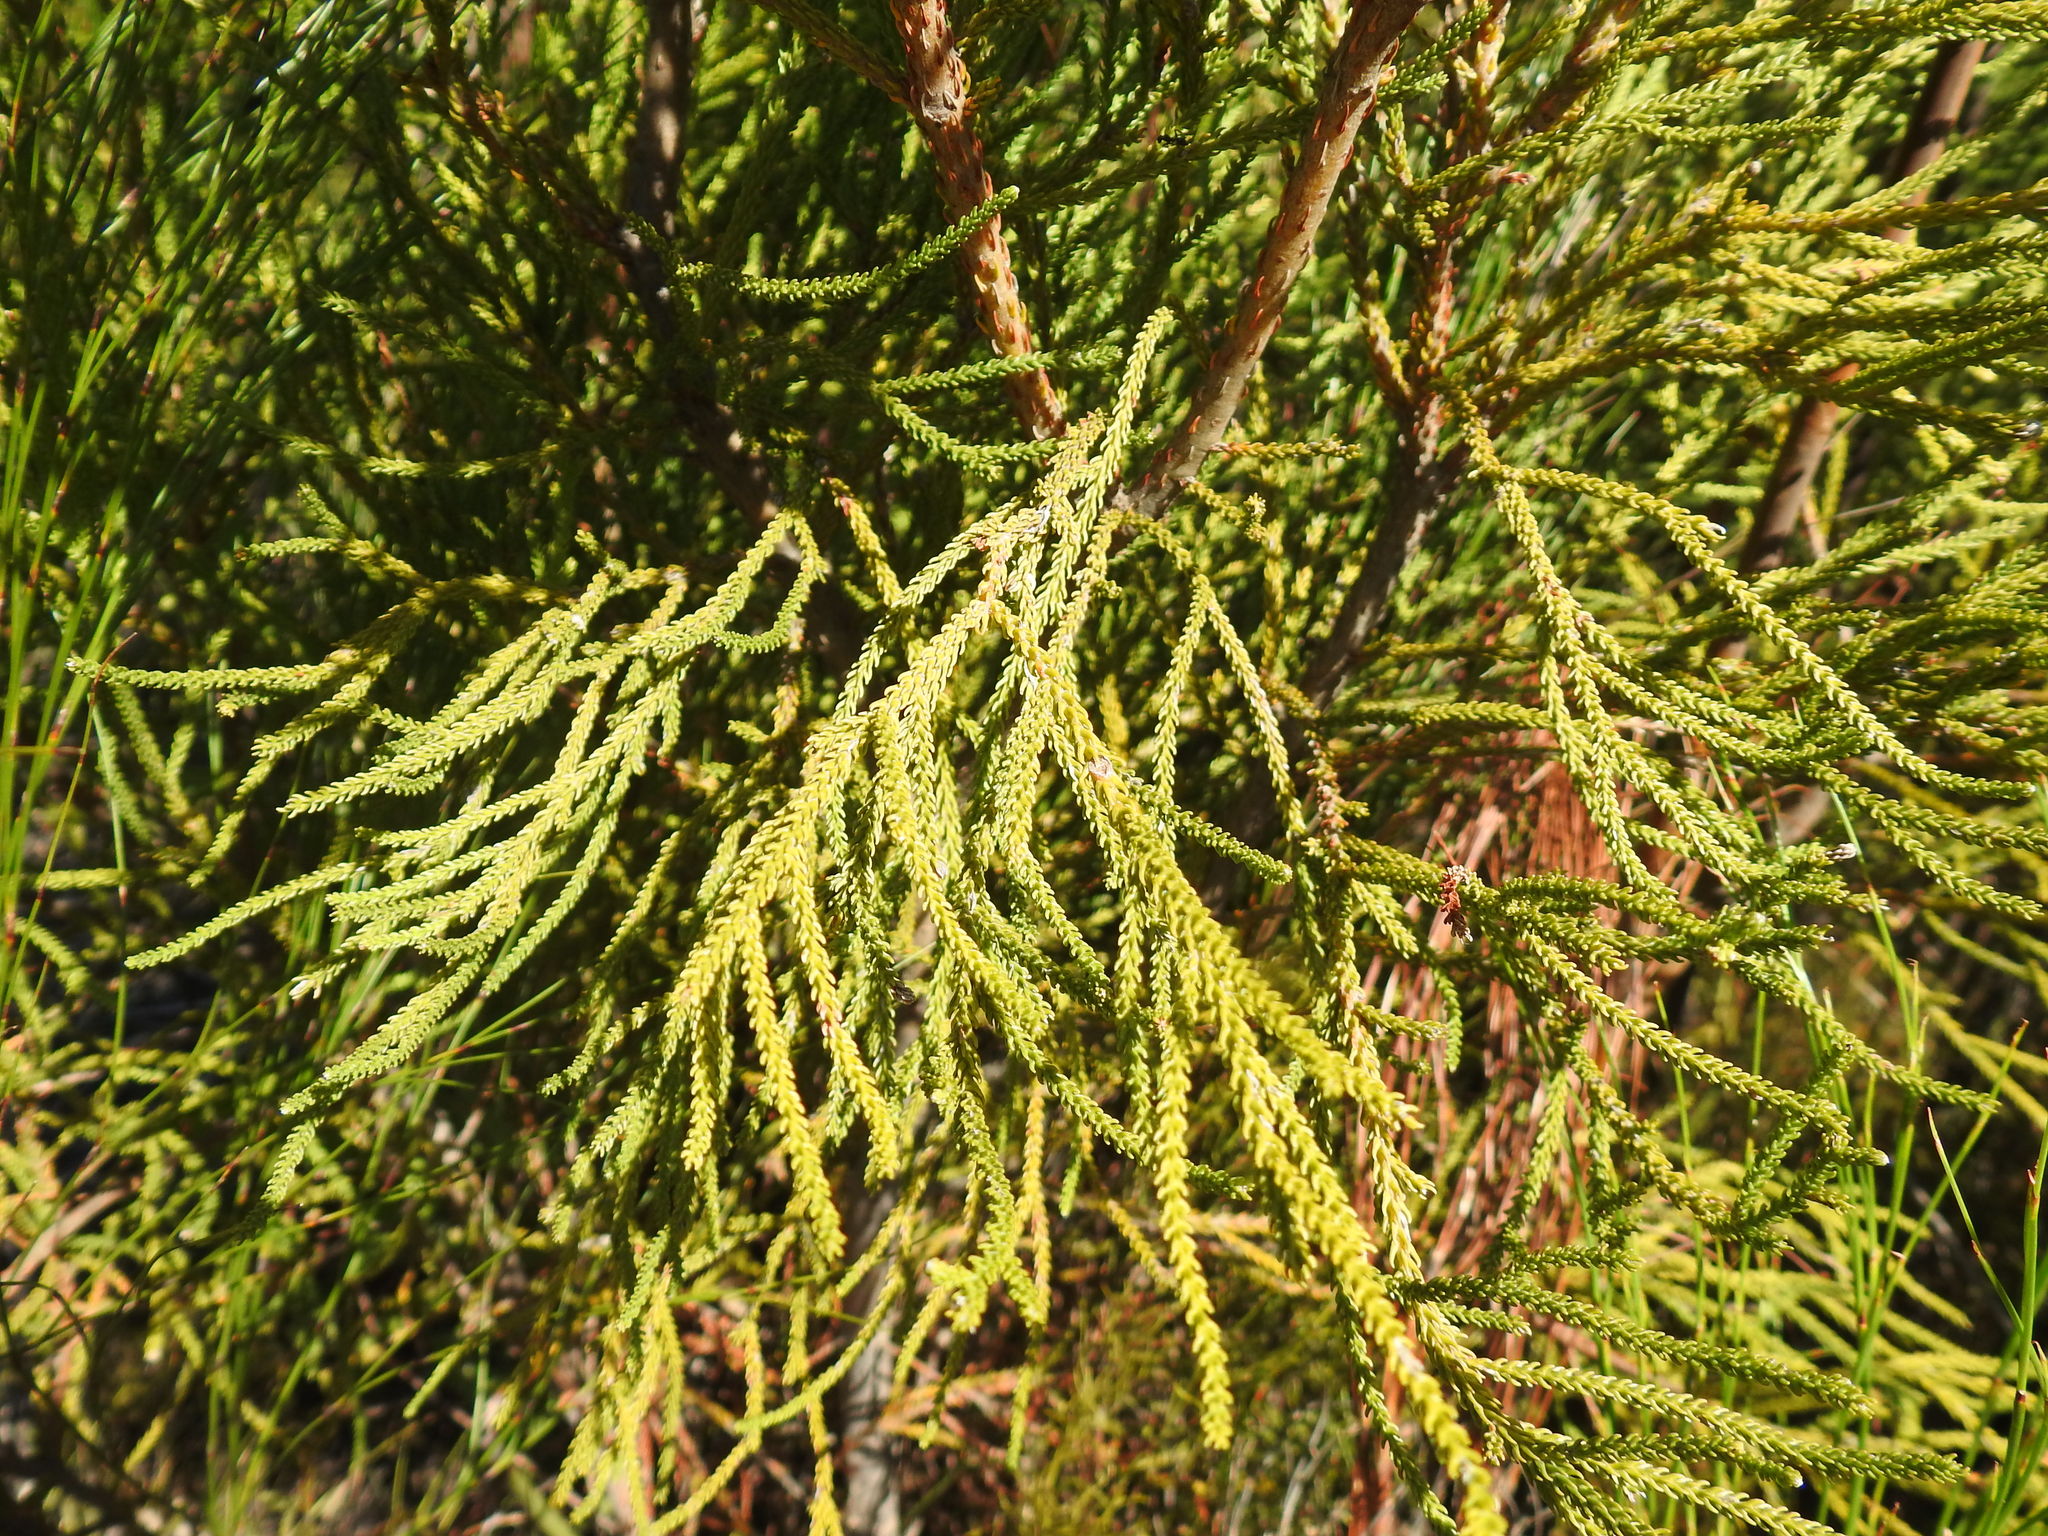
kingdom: Plantae
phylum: Tracheophyta
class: Magnoliopsida
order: Bruniales
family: Bruniaceae
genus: Brunia
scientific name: Brunia noduliflora
